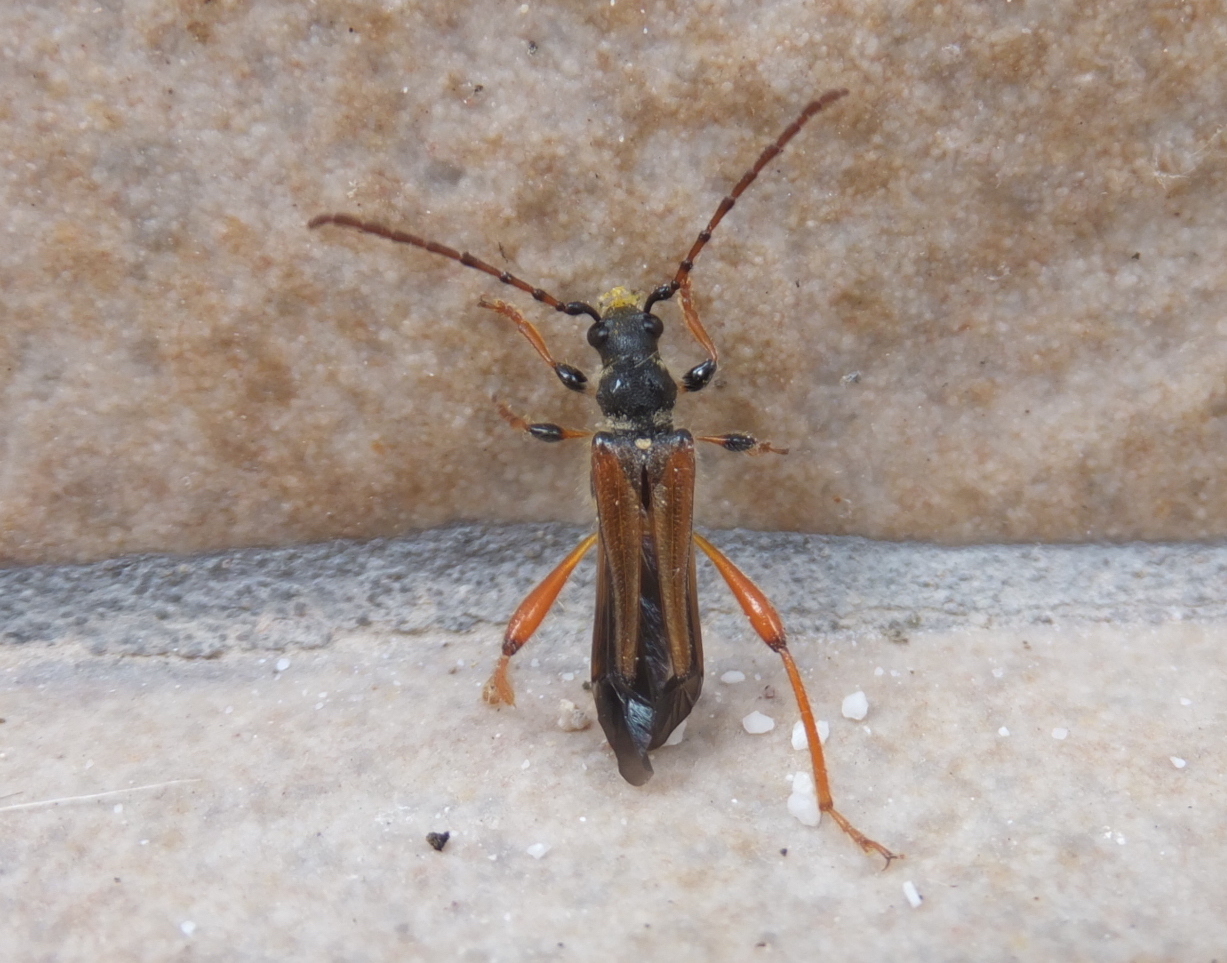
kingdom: Animalia
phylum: Arthropoda
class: Insecta
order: Coleoptera
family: Cerambycidae
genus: Stenopterus
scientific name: Stenopterus rufus
